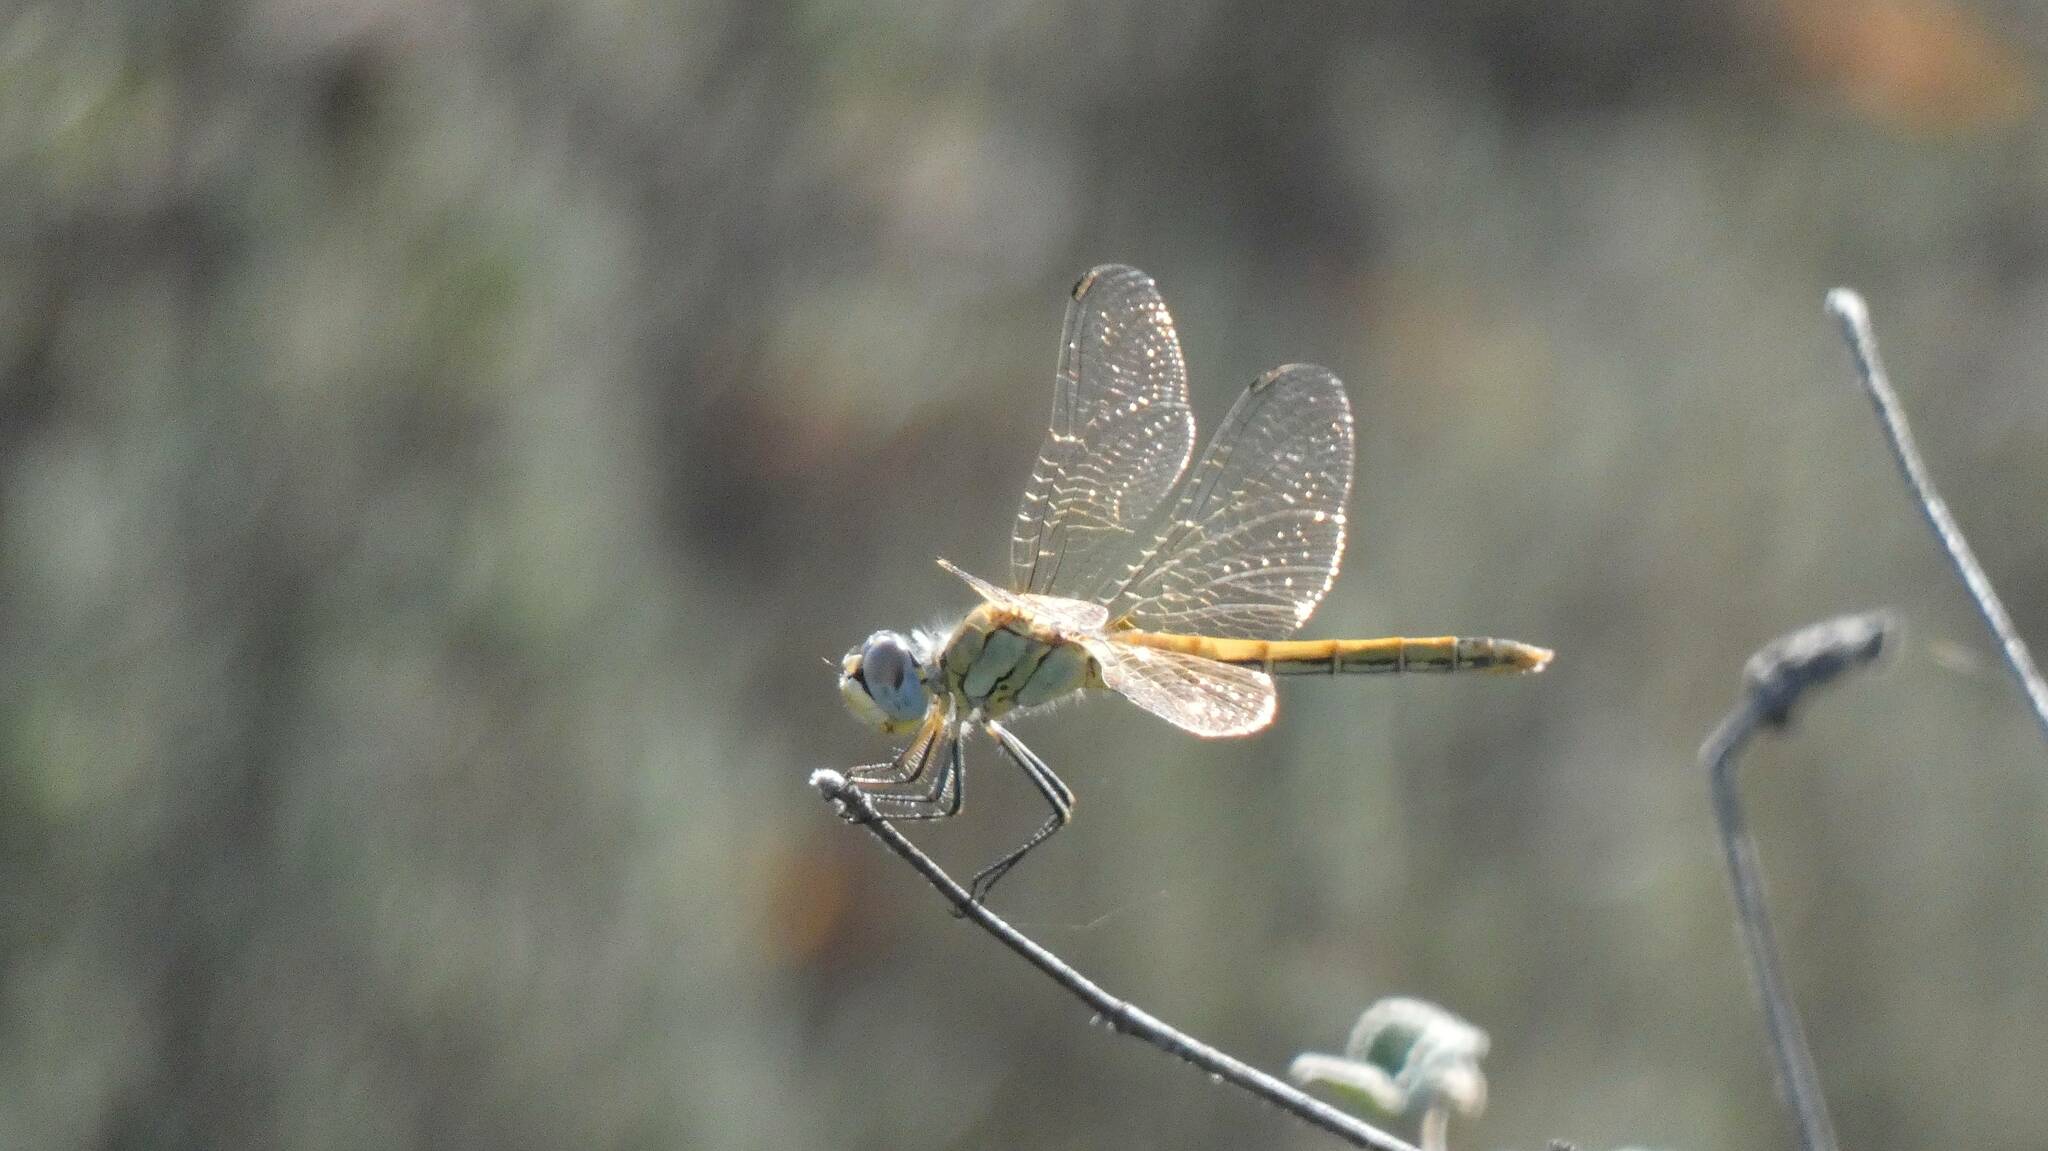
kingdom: Animalia
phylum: Arthropoda
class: Insecta
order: Odonata
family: Libellulidae
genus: Sympetrum
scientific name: Sympetrum fonscolombii
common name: Red-veined darter
